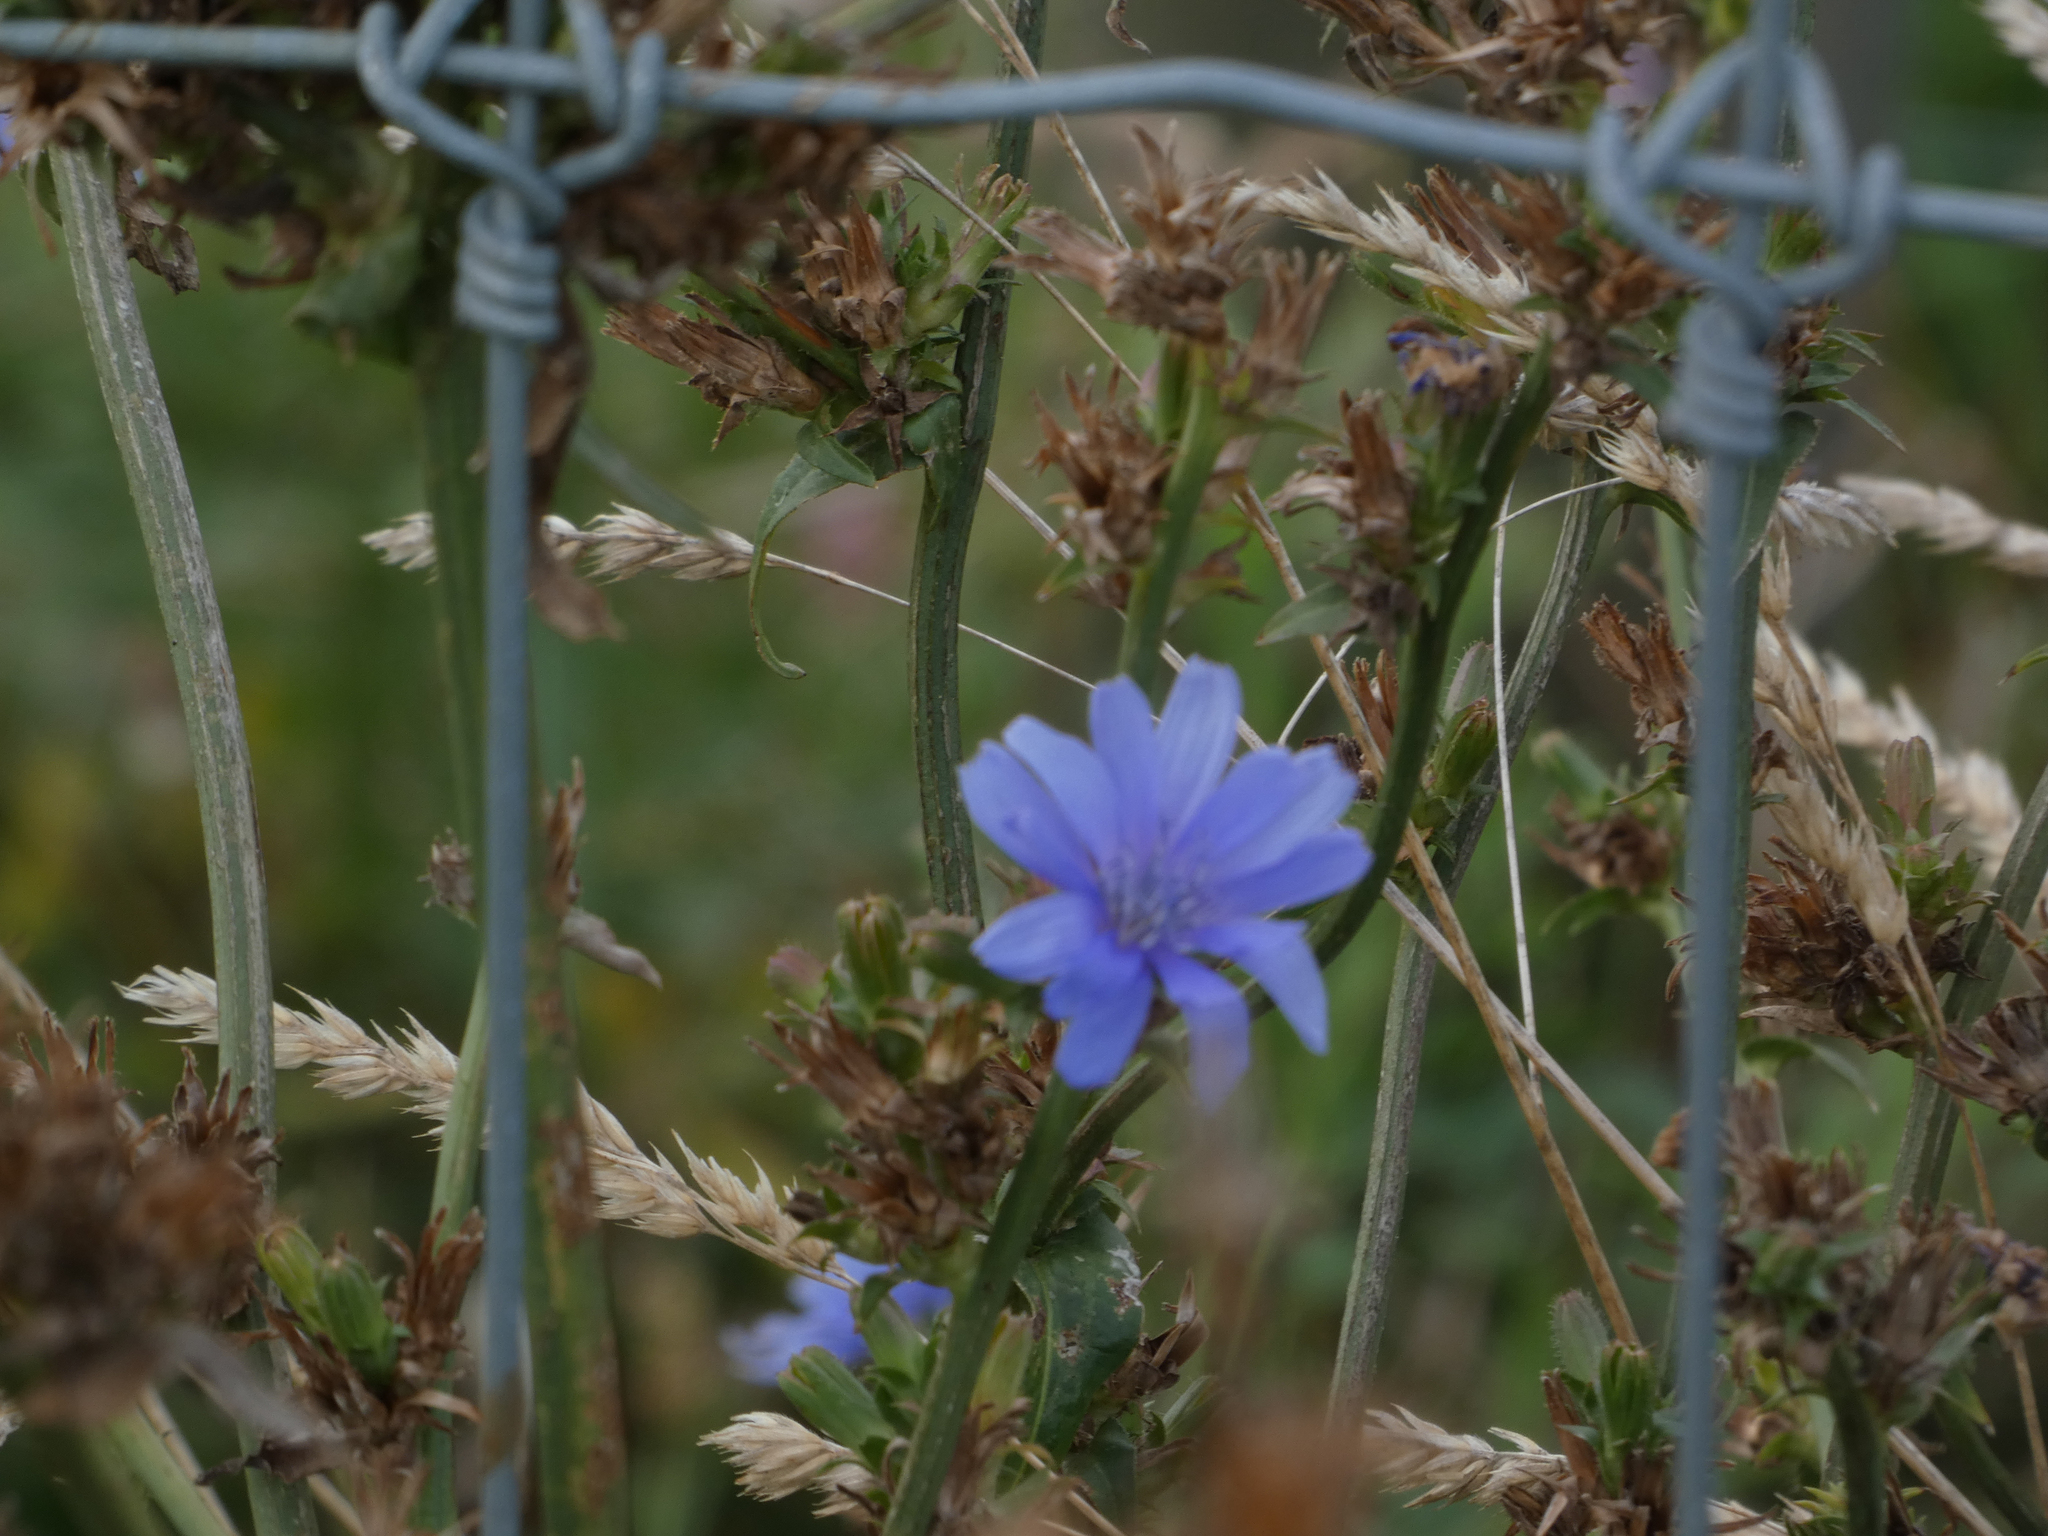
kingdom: Plantae
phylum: Tracheophyta
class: Magnoliopsida
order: Asterales
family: Asteraceae
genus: Cichorium
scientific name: Cichorium intybus
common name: Chicory
